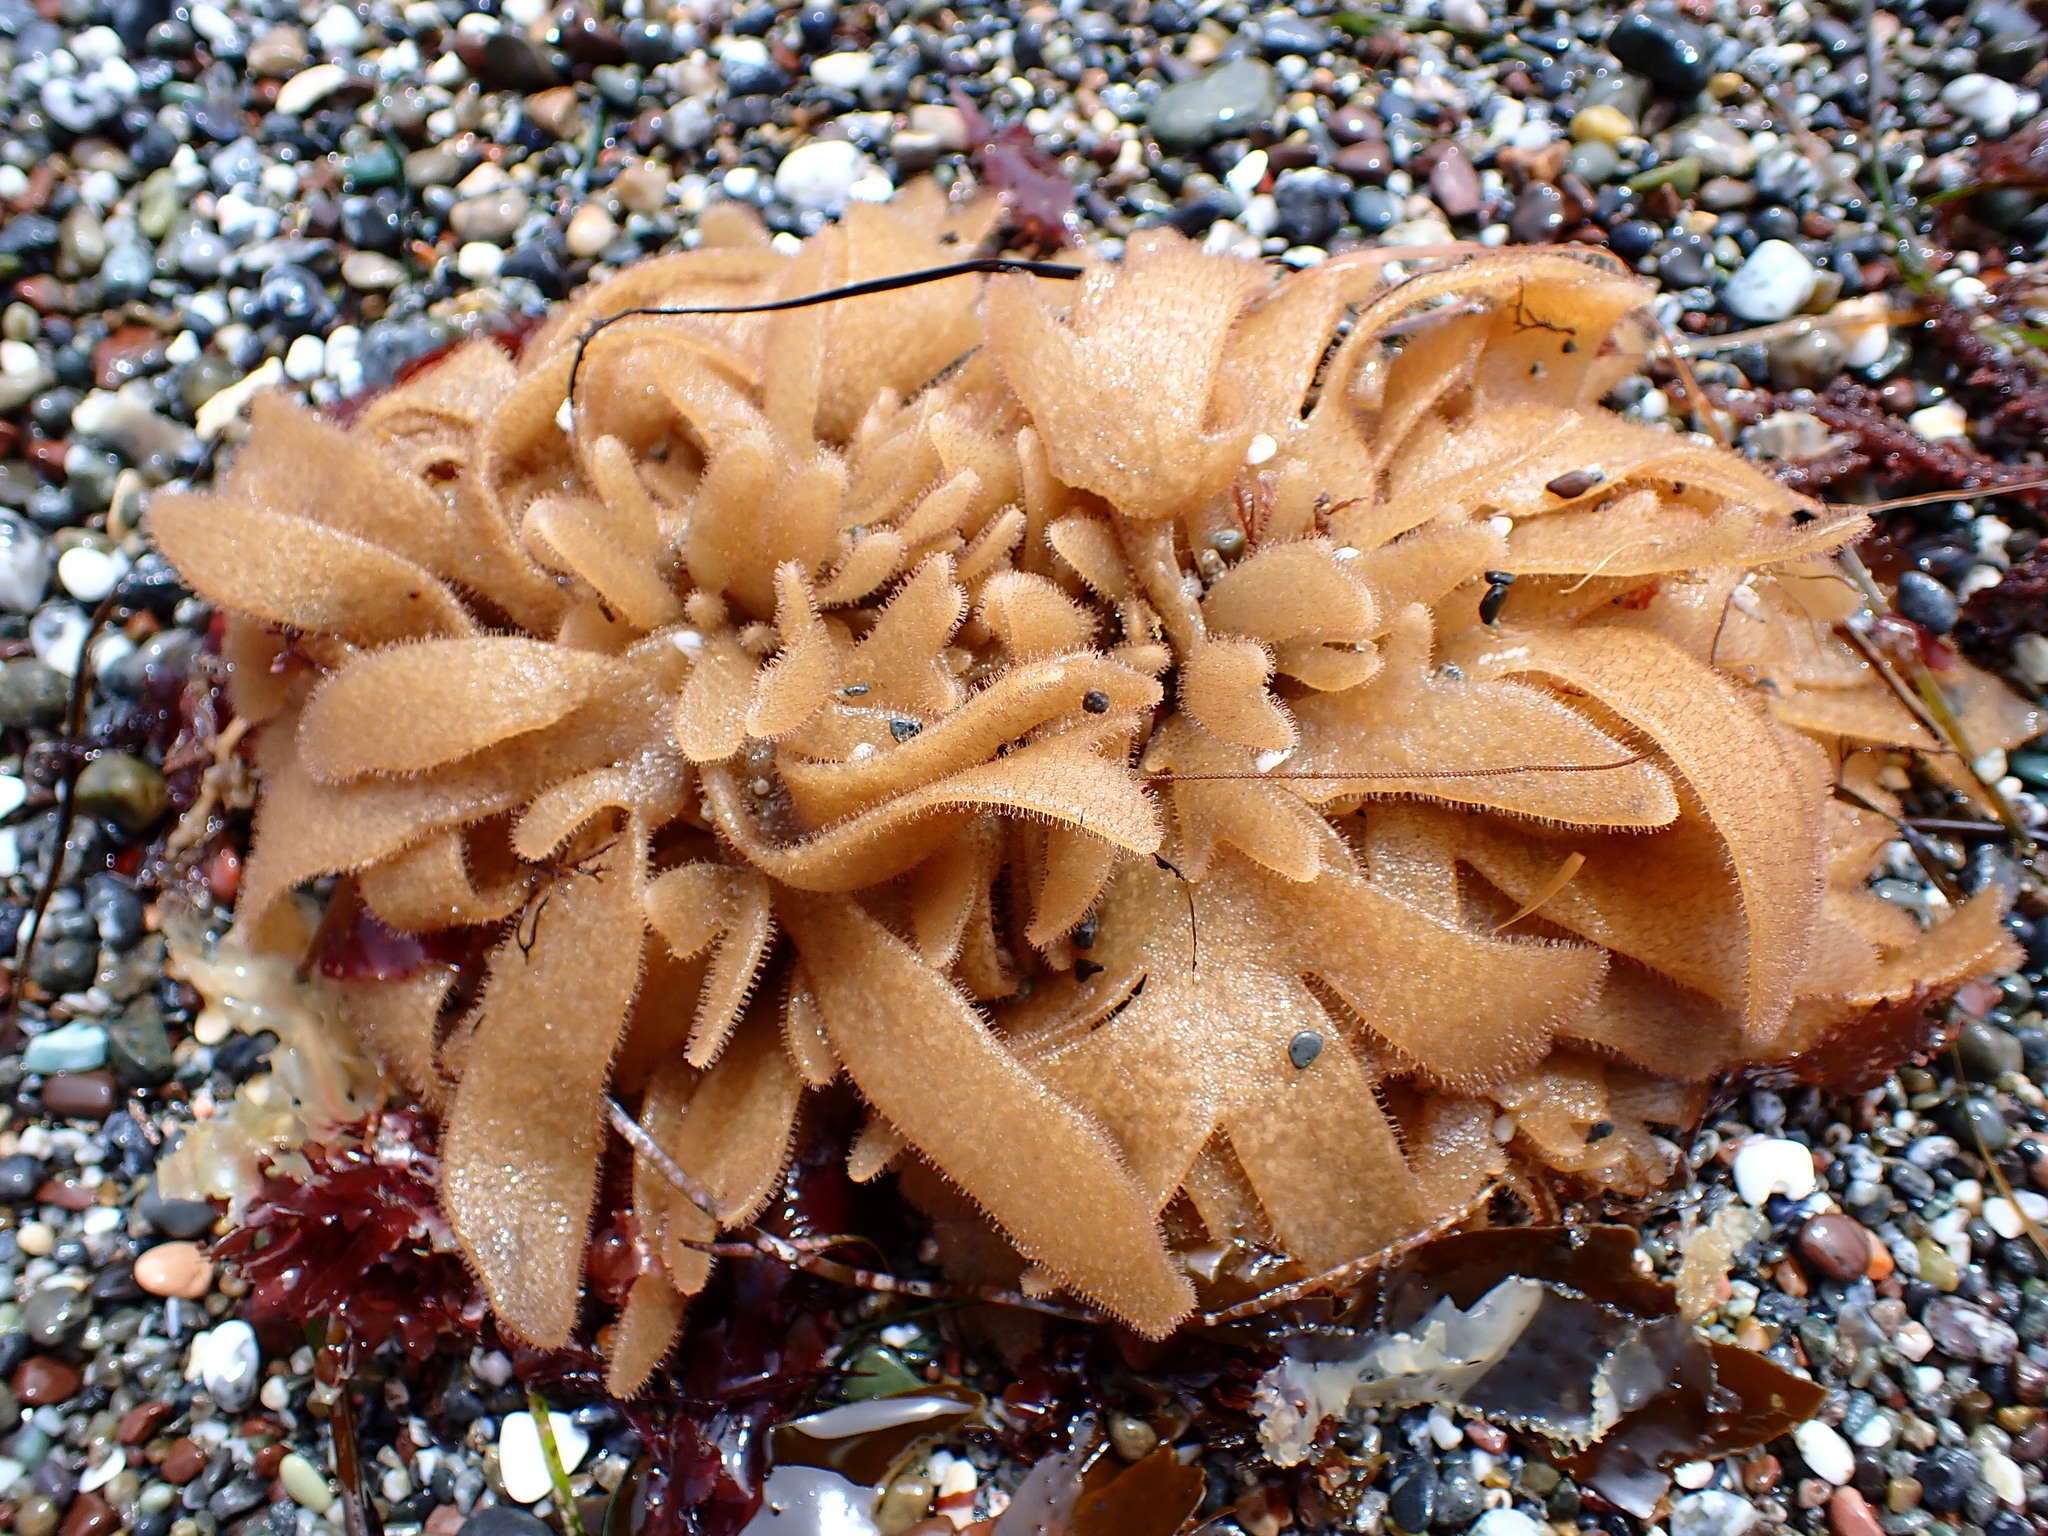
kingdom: Animalia
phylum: Bryozoa
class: Gymnolaemata
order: Ctenostomatida
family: Flustrellidridae
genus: Flustrellidra
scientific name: Flustrellidra corniculata
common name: Spiny leather bryozoan
